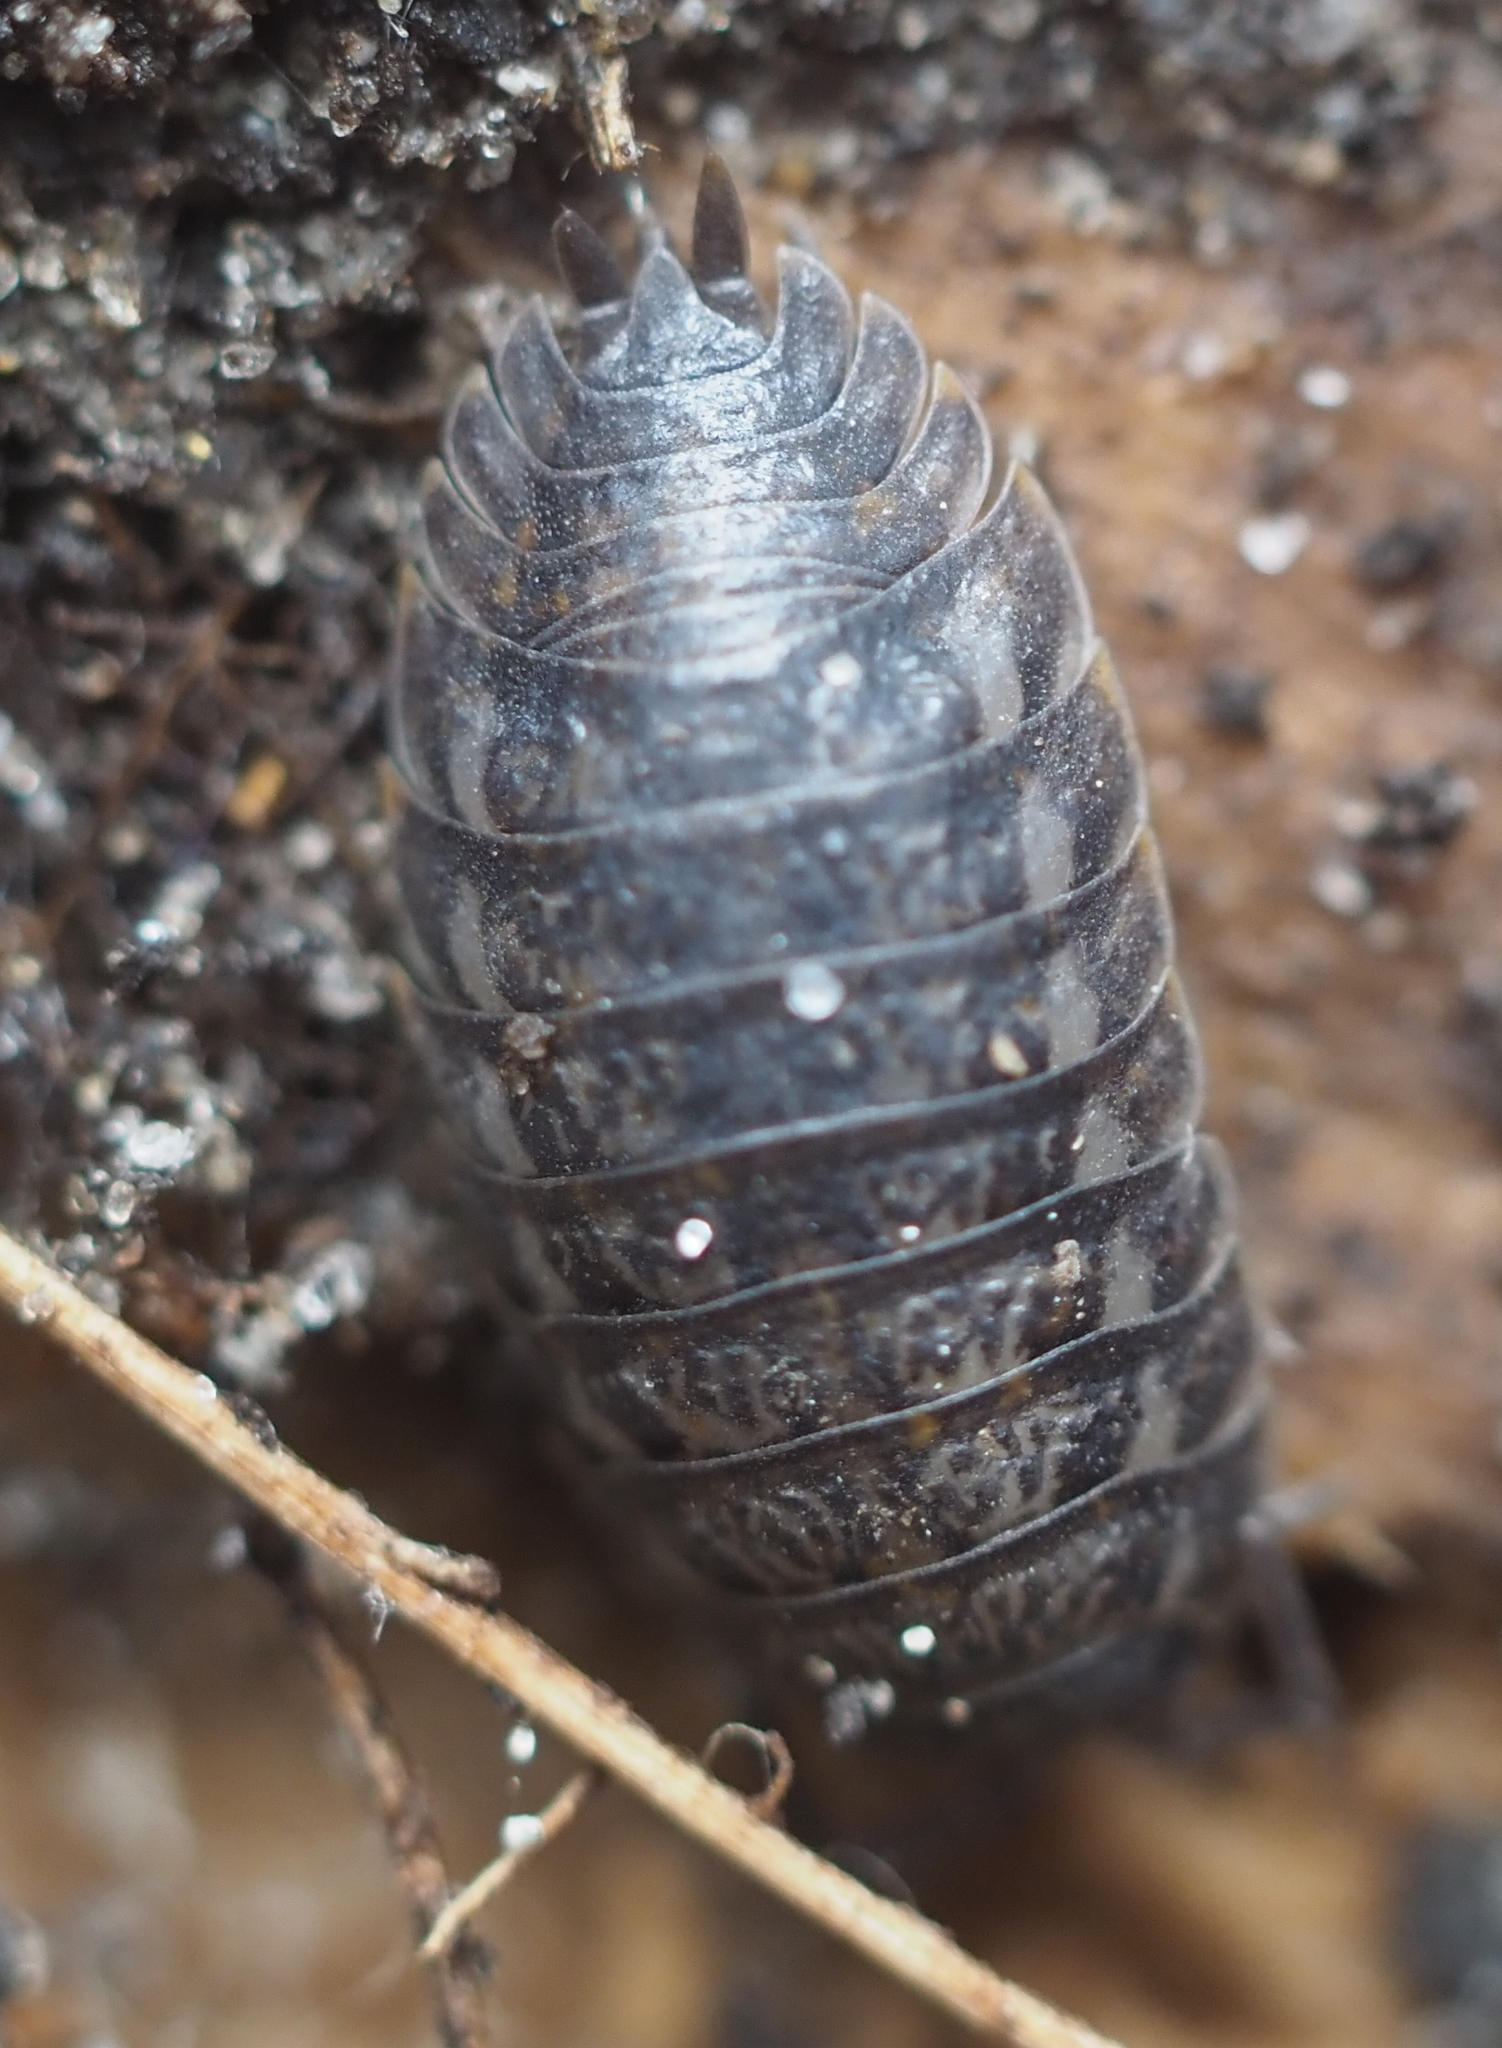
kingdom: Animalia
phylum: Arthropoda
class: Malacostraca
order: Isopoda
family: Trachelipodidae
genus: Trachelipus
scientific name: Trachelipus rathkii
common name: Isopod
